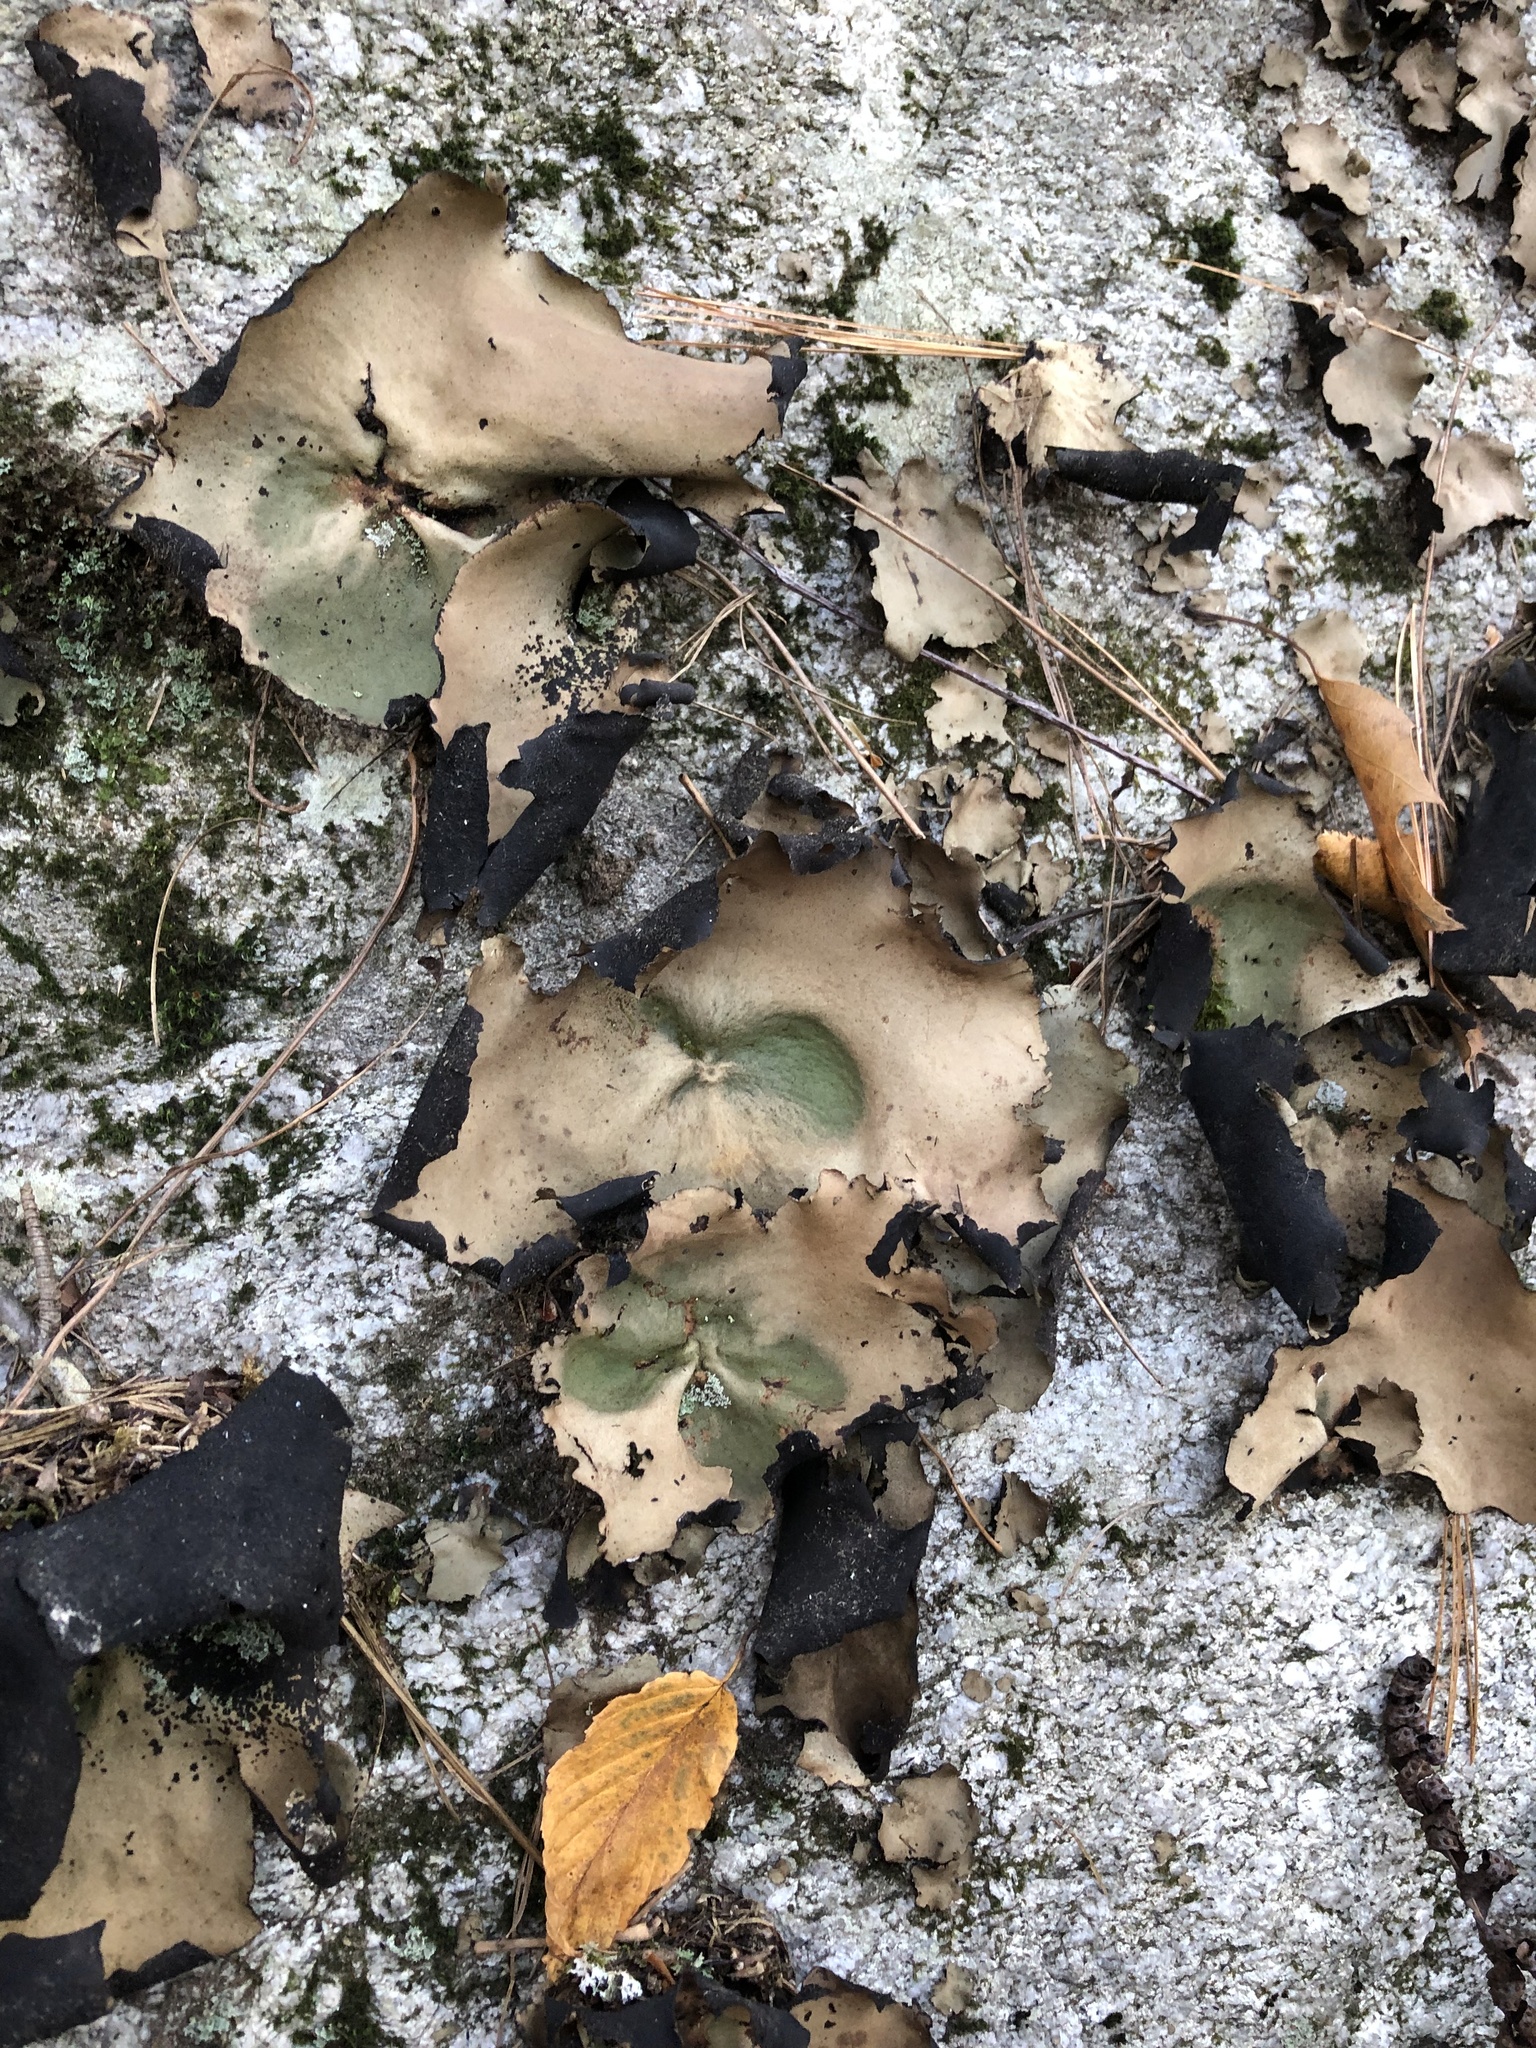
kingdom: Fungi
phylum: Ascomycota
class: Lecanoromycetes
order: Umbilicariales
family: Umbilicariaceae
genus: Umbilicaria
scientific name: Umbilicaria mammulata
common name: Smooth rock tripe
